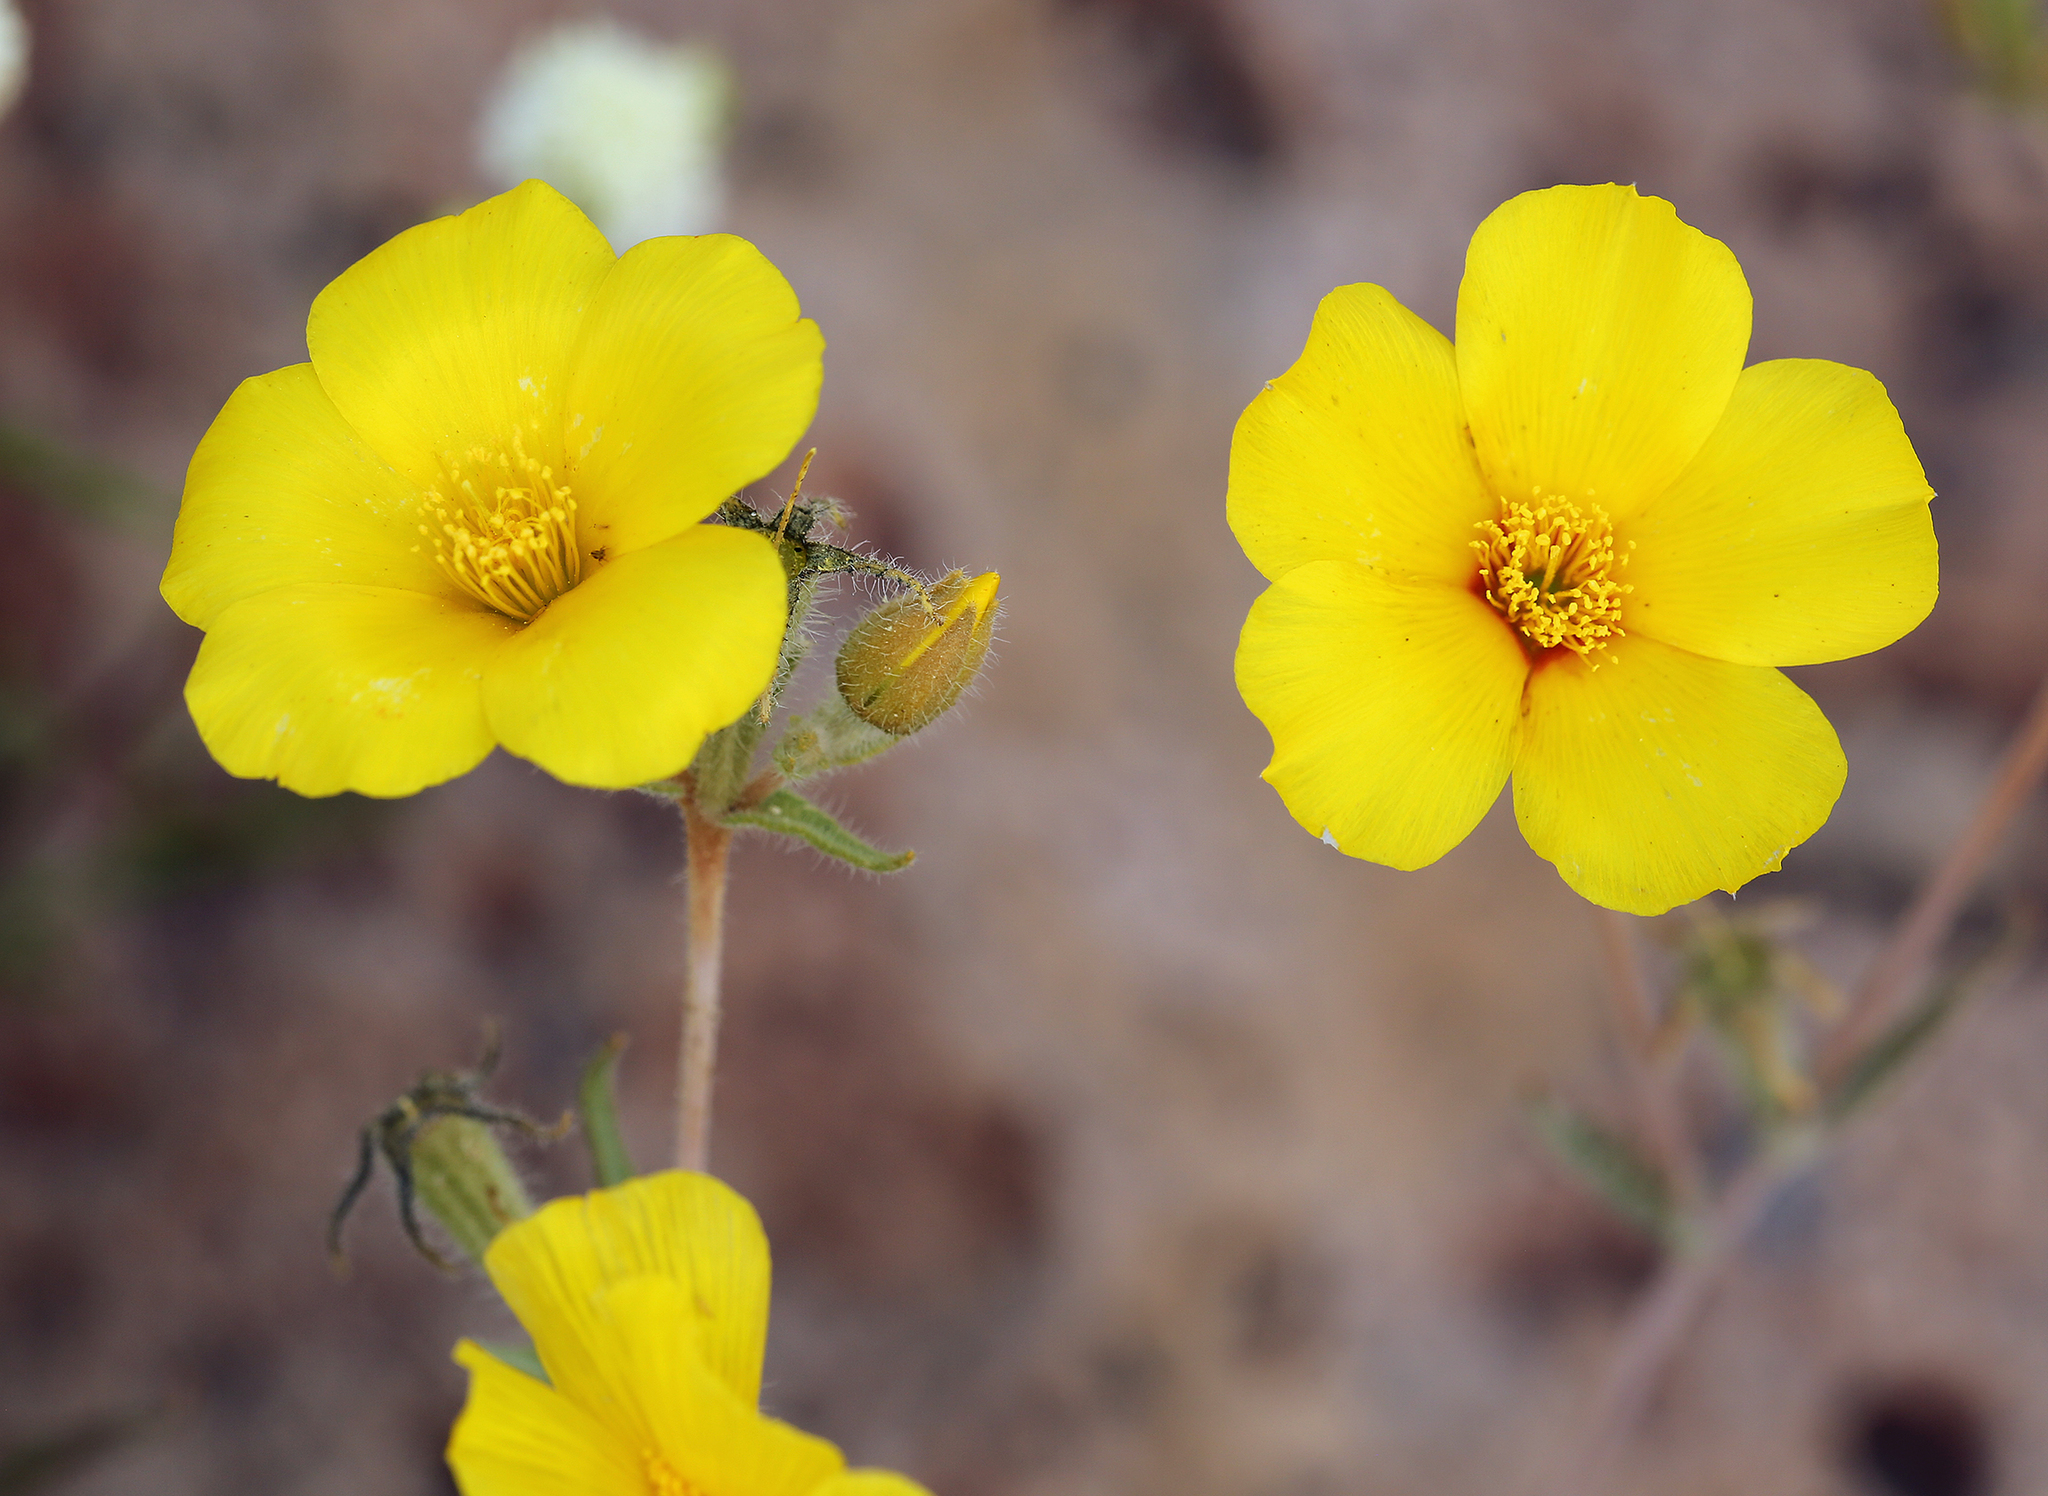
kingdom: Plantae
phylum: Tracheophyta
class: Magnoliopsida
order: Cornales
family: Loasaceae
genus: Mentzelia
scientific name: Mentzelia nitens
